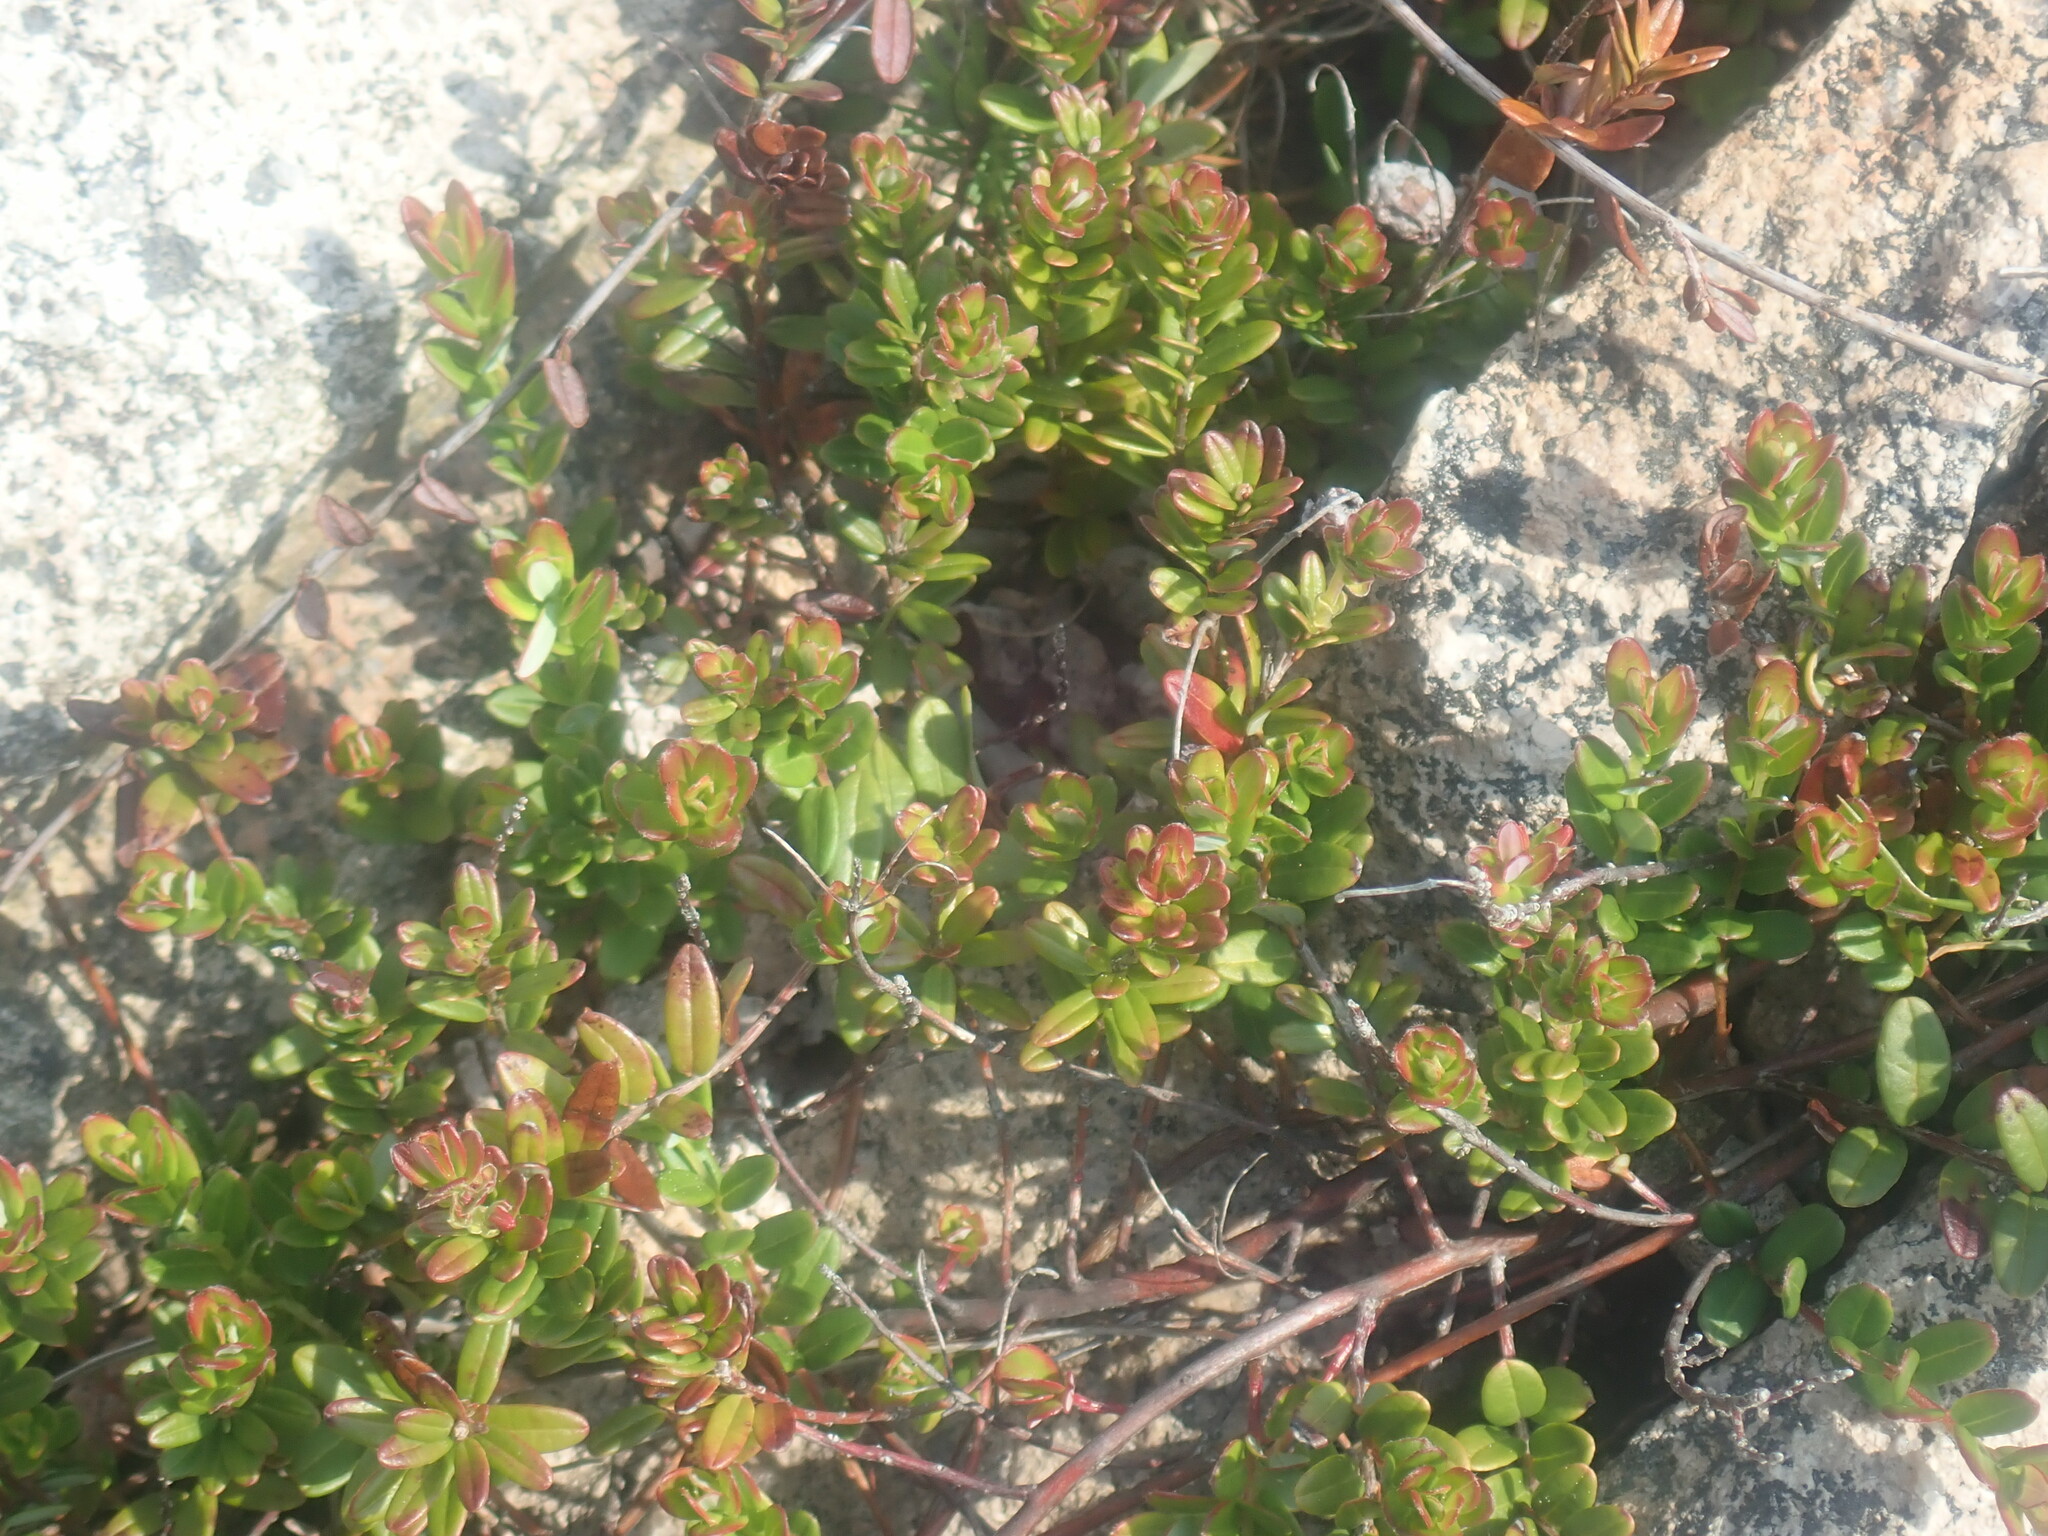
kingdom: Plantae
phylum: Tracheophyta
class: Magnoliopsida
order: Ericales
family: Ericaceae
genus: Vaccinium
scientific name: Vaccinium macrocarpon
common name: American cranberry
